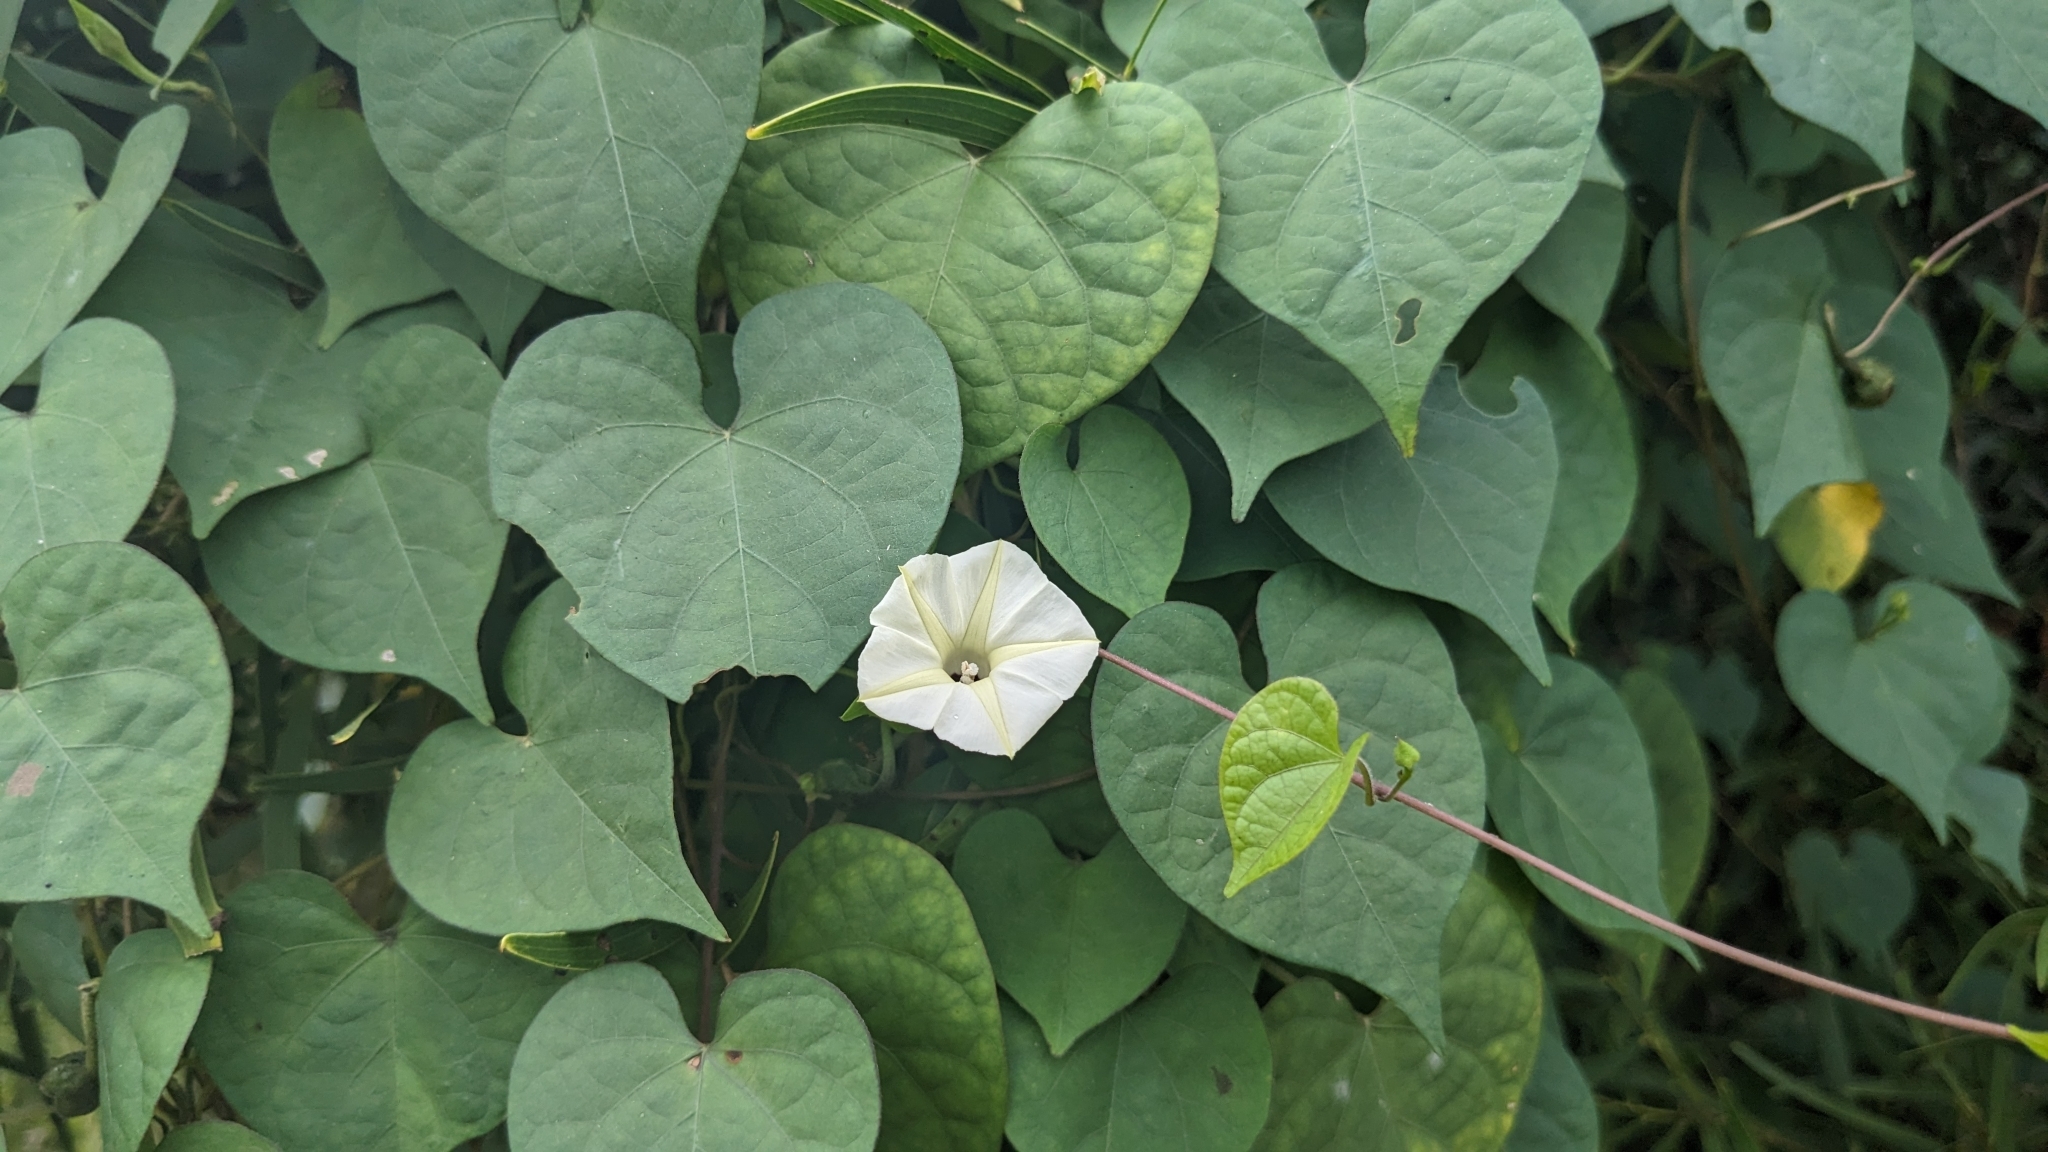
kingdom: Plantae
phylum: Tracheophyta
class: Magnoliopsida
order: Solanales
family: Convolvulaceae
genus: Ipomoea
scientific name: Ipomoea obscura
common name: Obscure morning-glory
